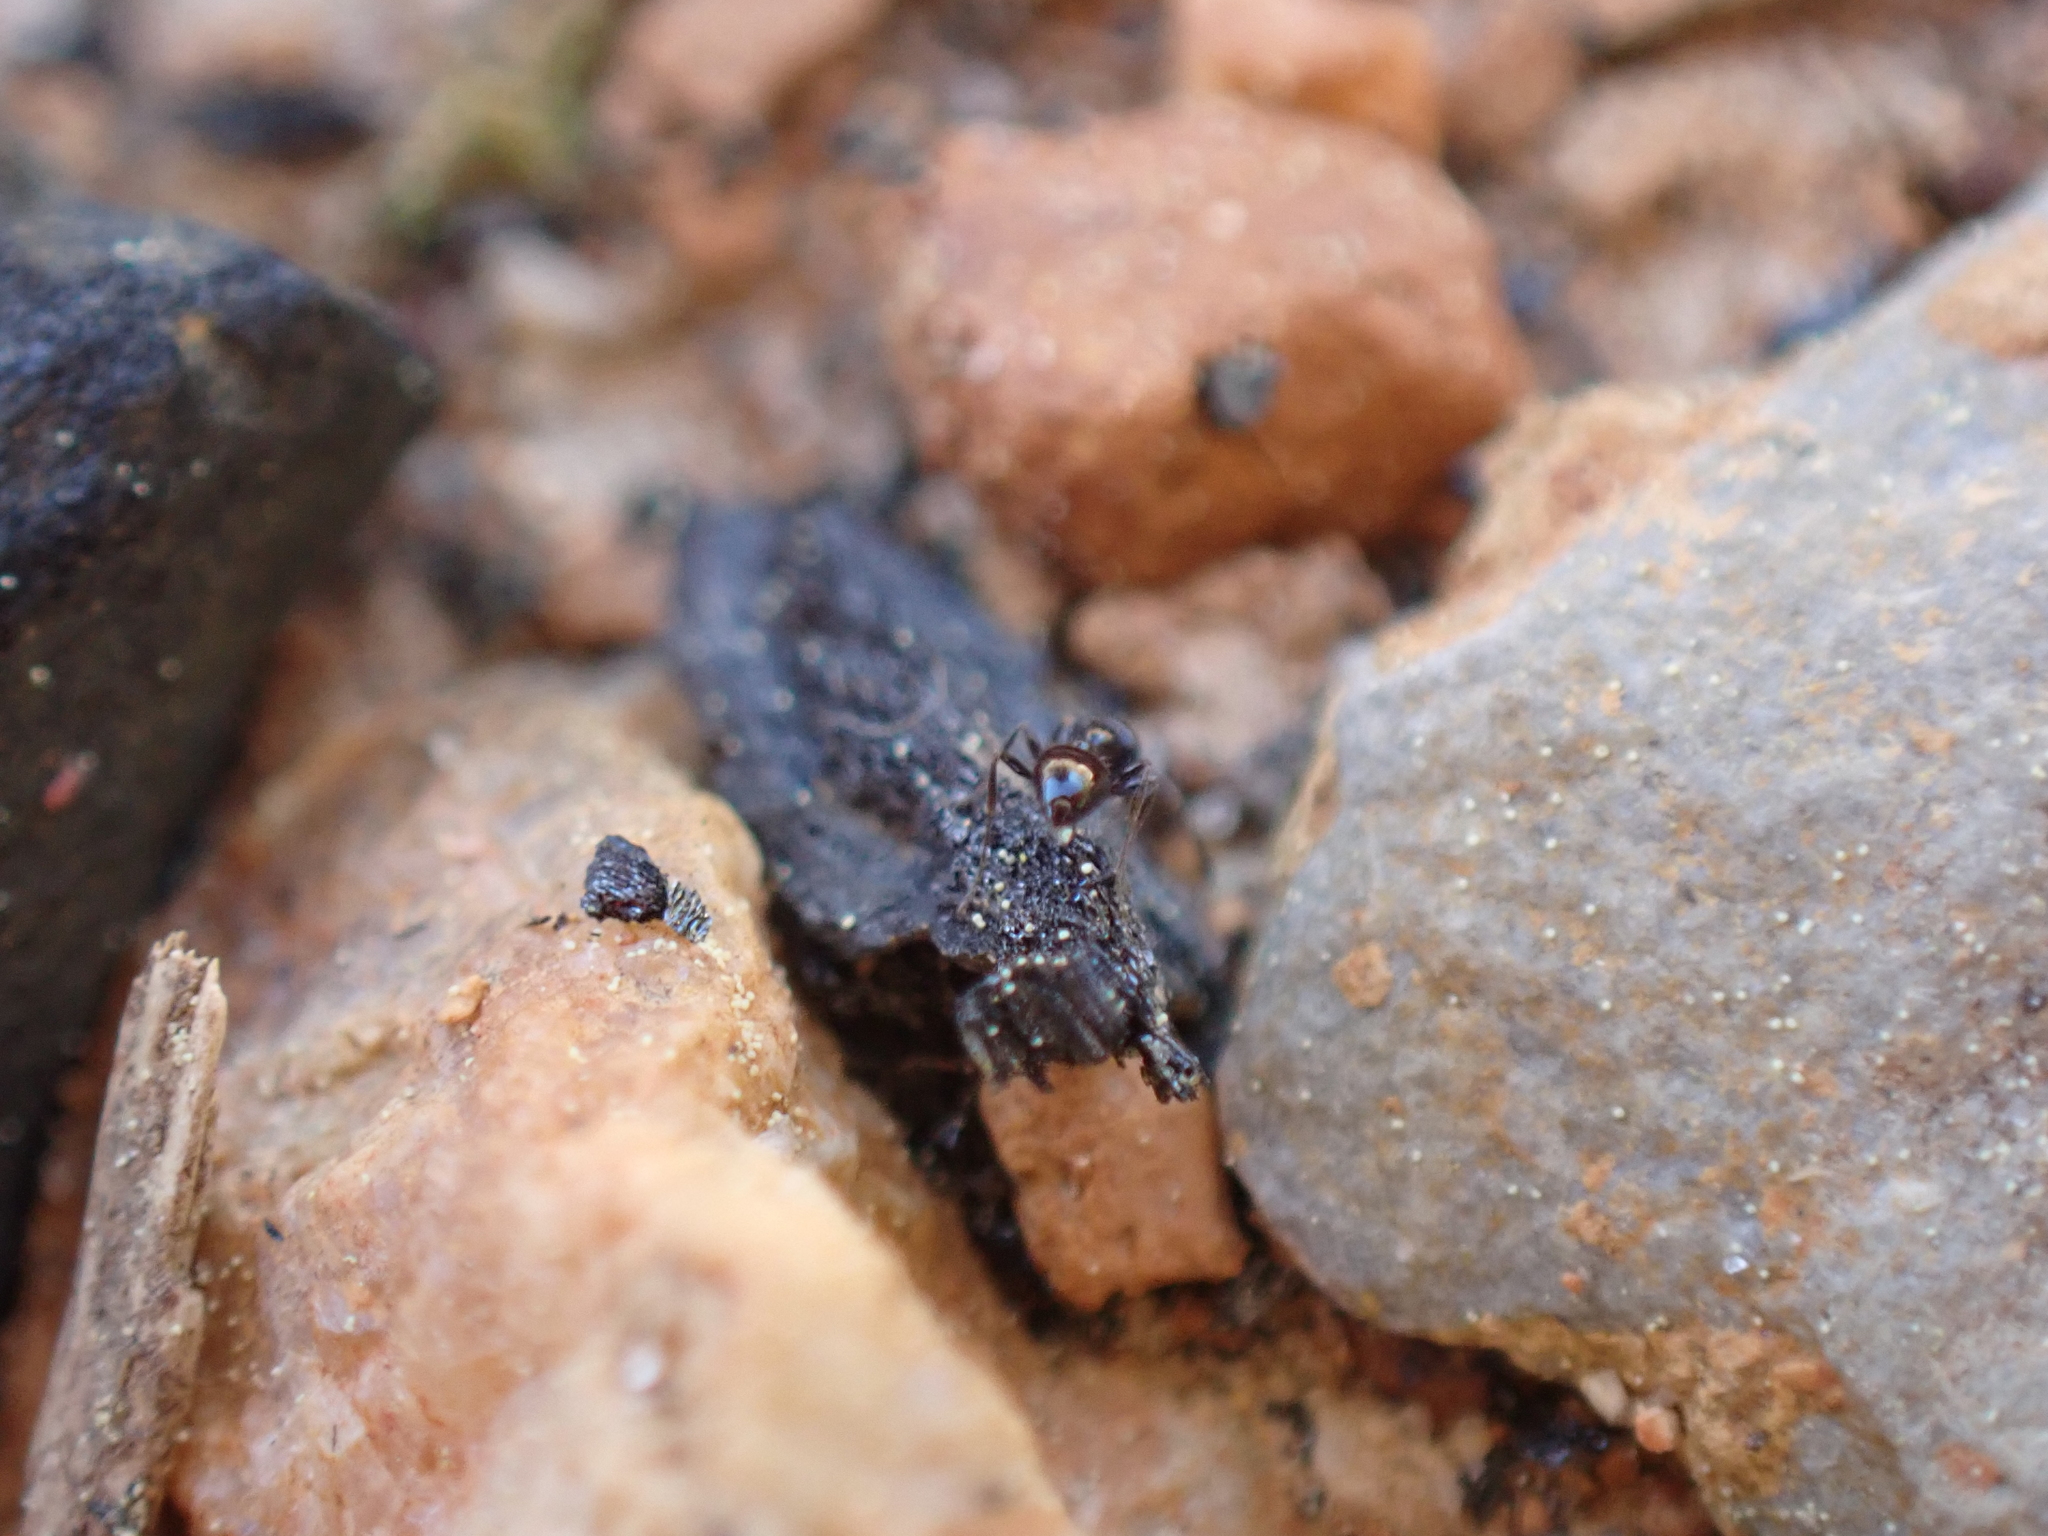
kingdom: Animalia
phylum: Arthropoda
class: Insecta
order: Hymenoptera
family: Formicidae
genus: Monomorium
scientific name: Monomorium minimum
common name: Little black ant
